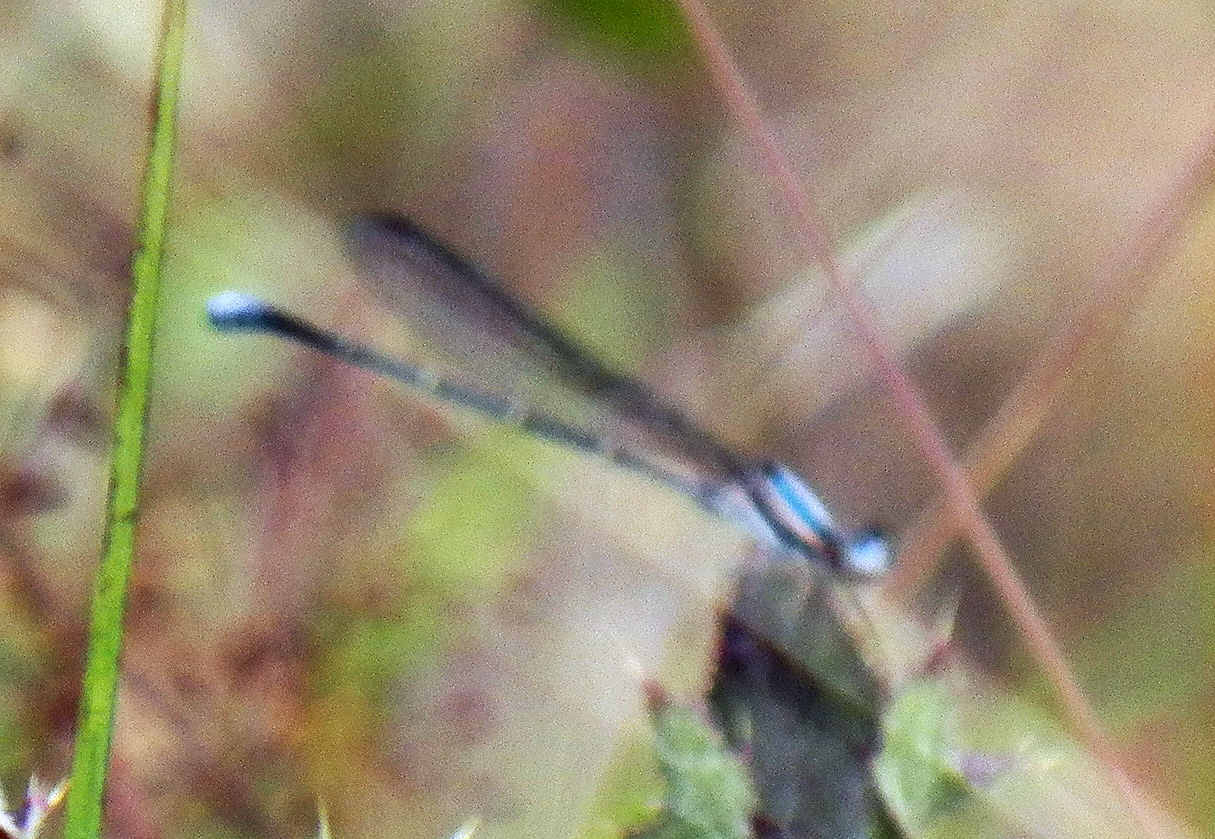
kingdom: Animalia
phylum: Arthropoda
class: Insecta
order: Odonata
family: Coenagrionidae
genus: Argia
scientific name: Argia moesta
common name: Powdered dancer
